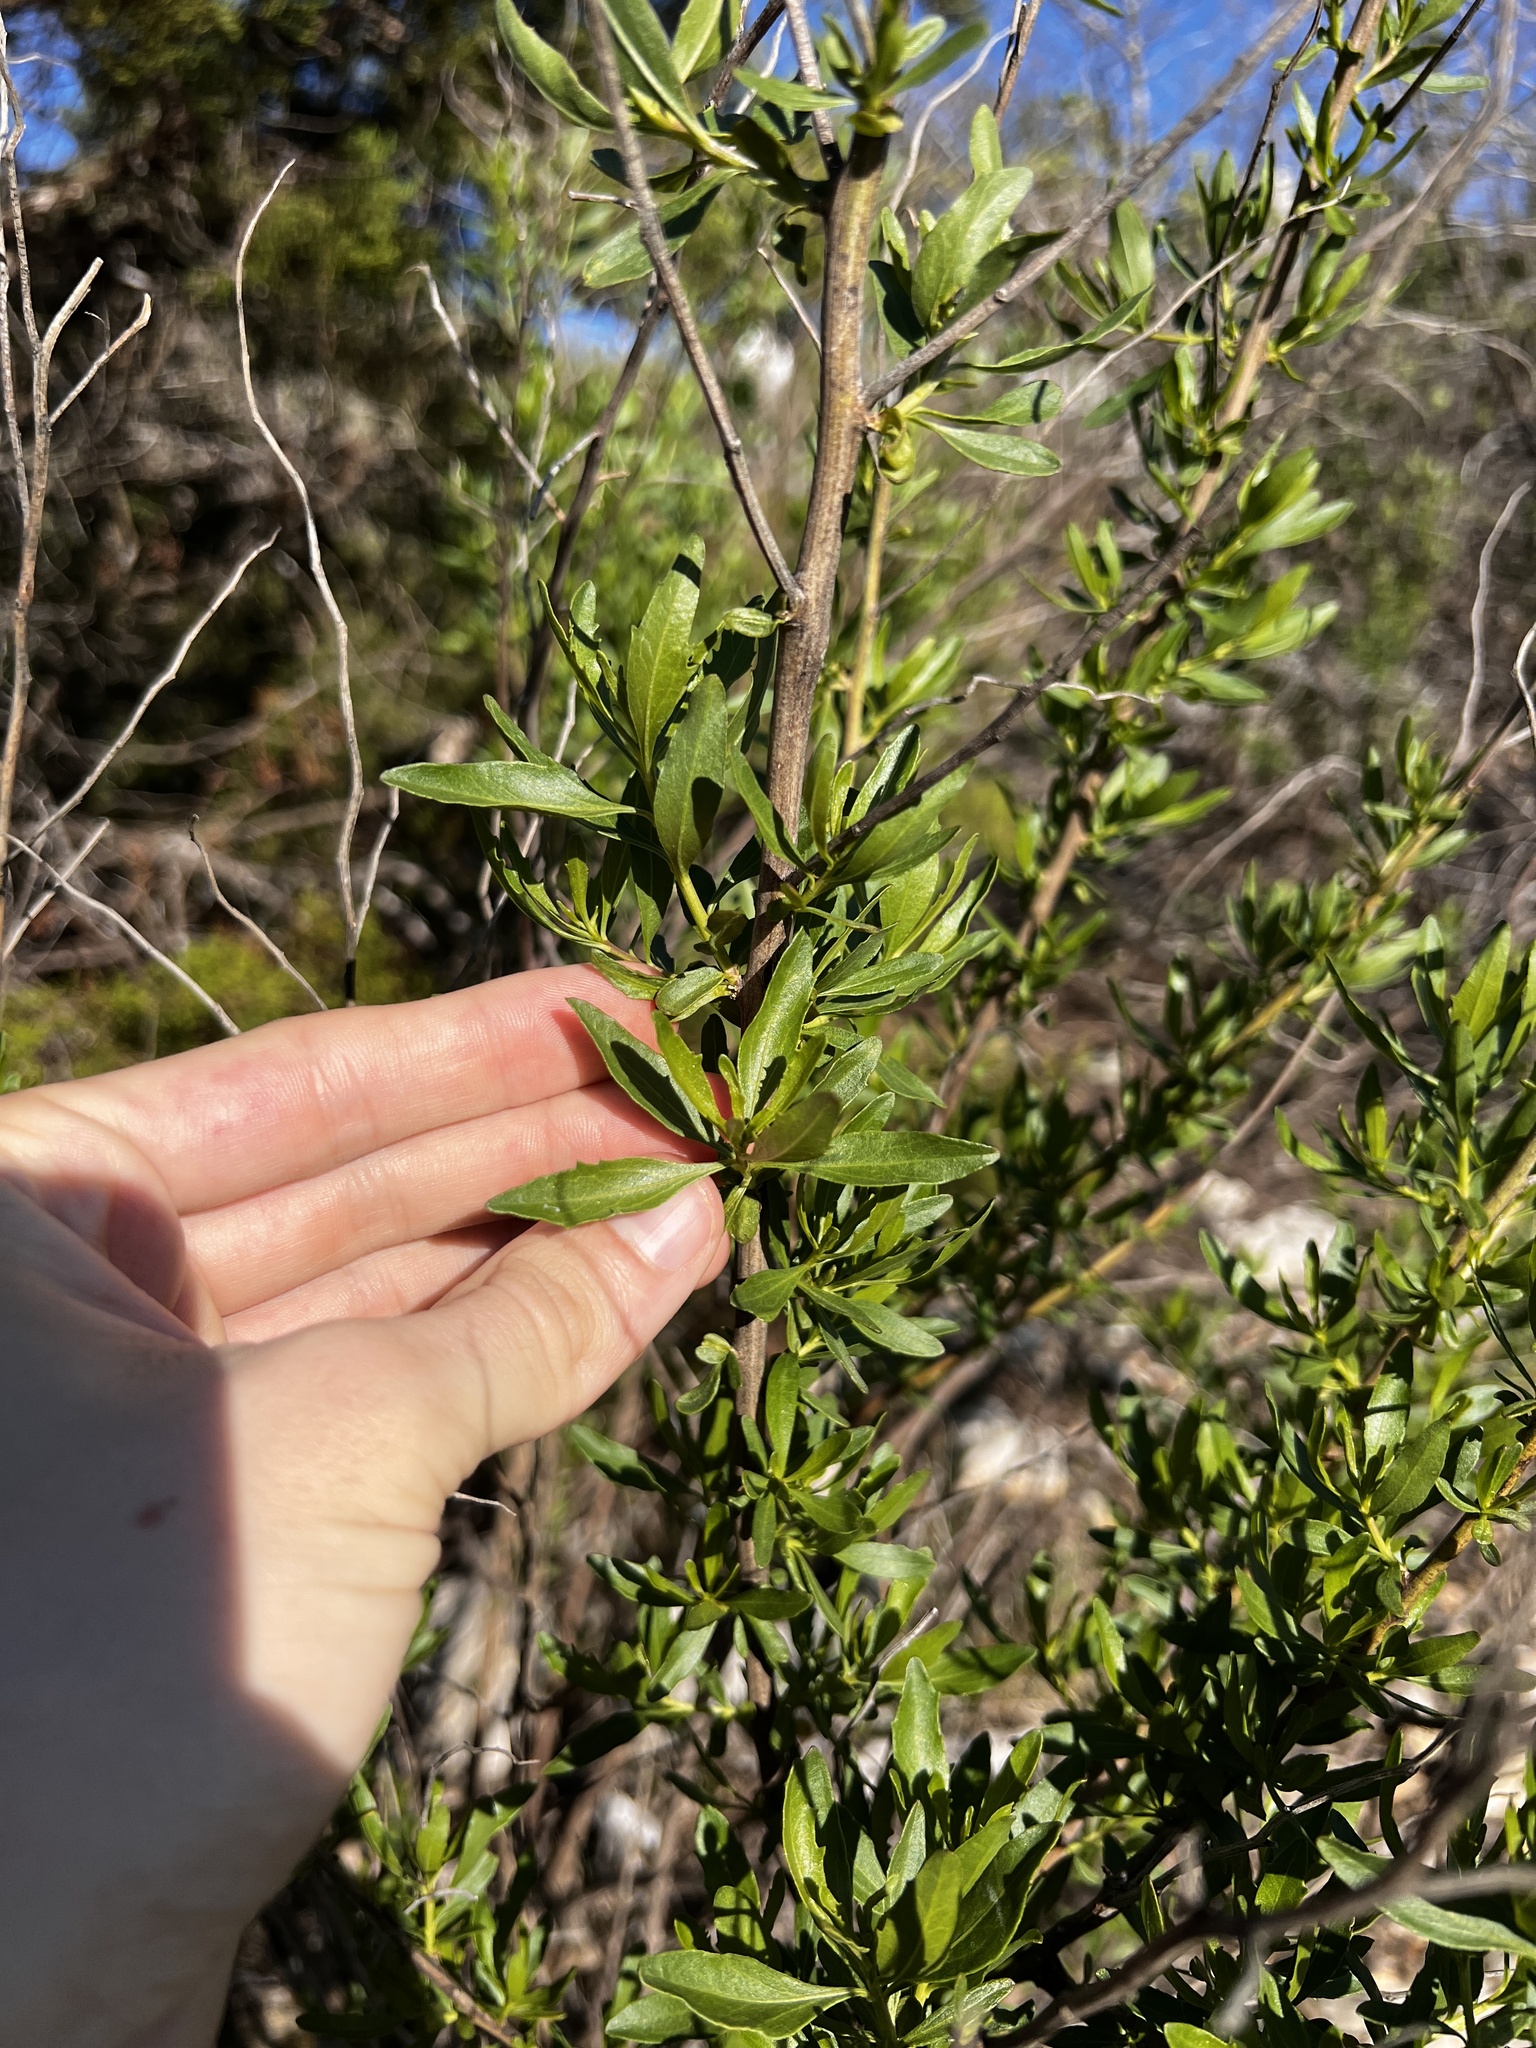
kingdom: Plantae
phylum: Tracheophyta
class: Magnoliopsida
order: Asterales
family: Asteraceae
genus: Baccharis
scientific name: Baccharis halimifolia
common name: Eastern baccharis
